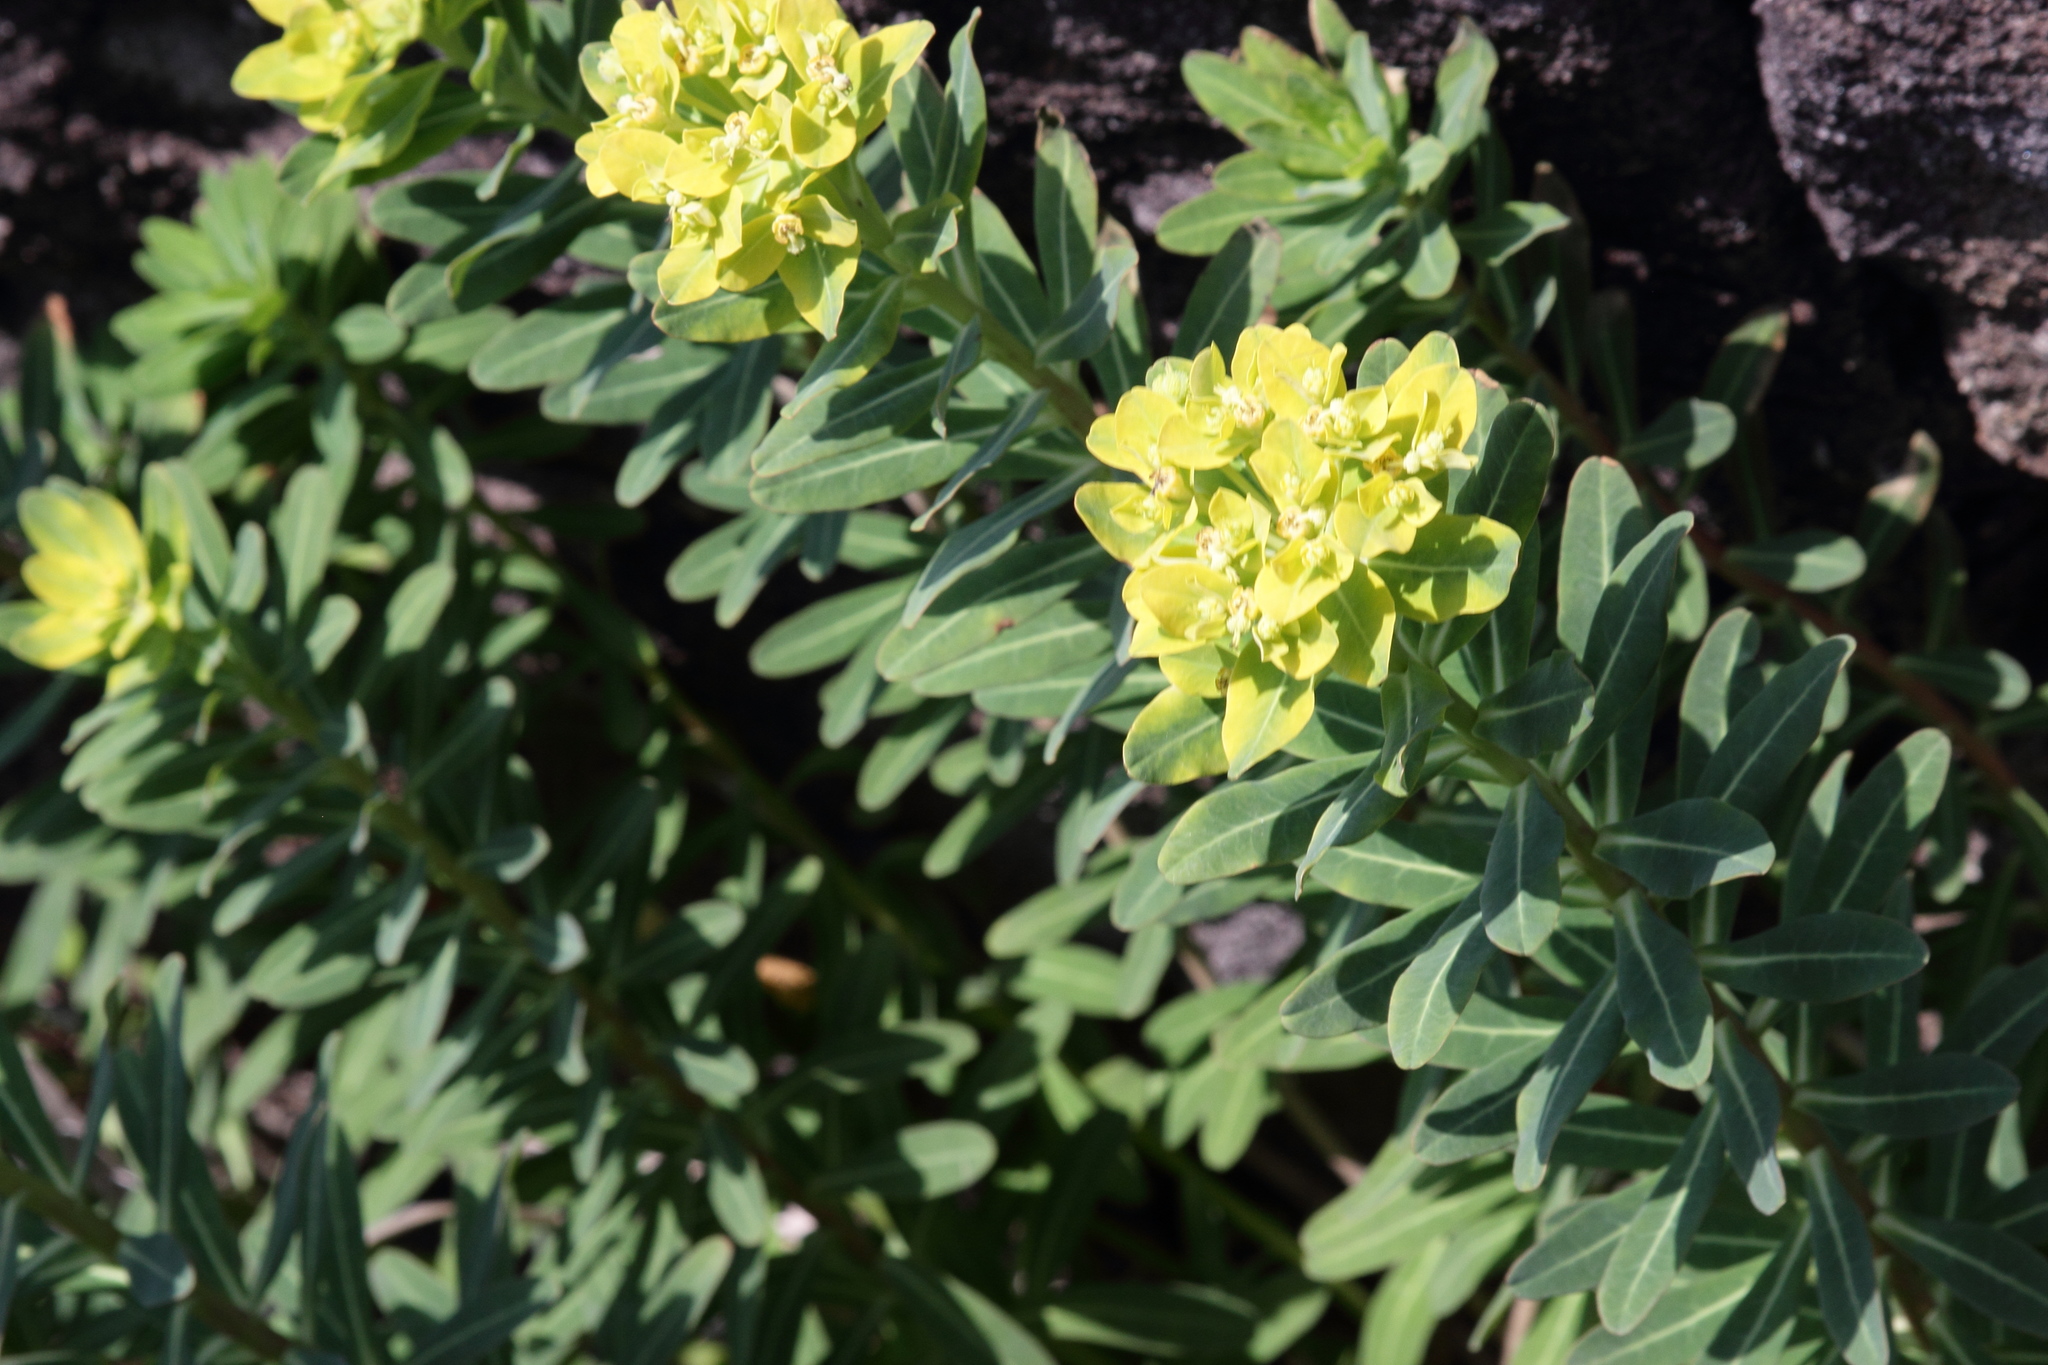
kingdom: Plantae
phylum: Tracheophyta
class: Magnoliopsida
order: Malpighiales
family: Euphorbiaceae
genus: Euphorbia
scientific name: Euphorbia jolkinii
